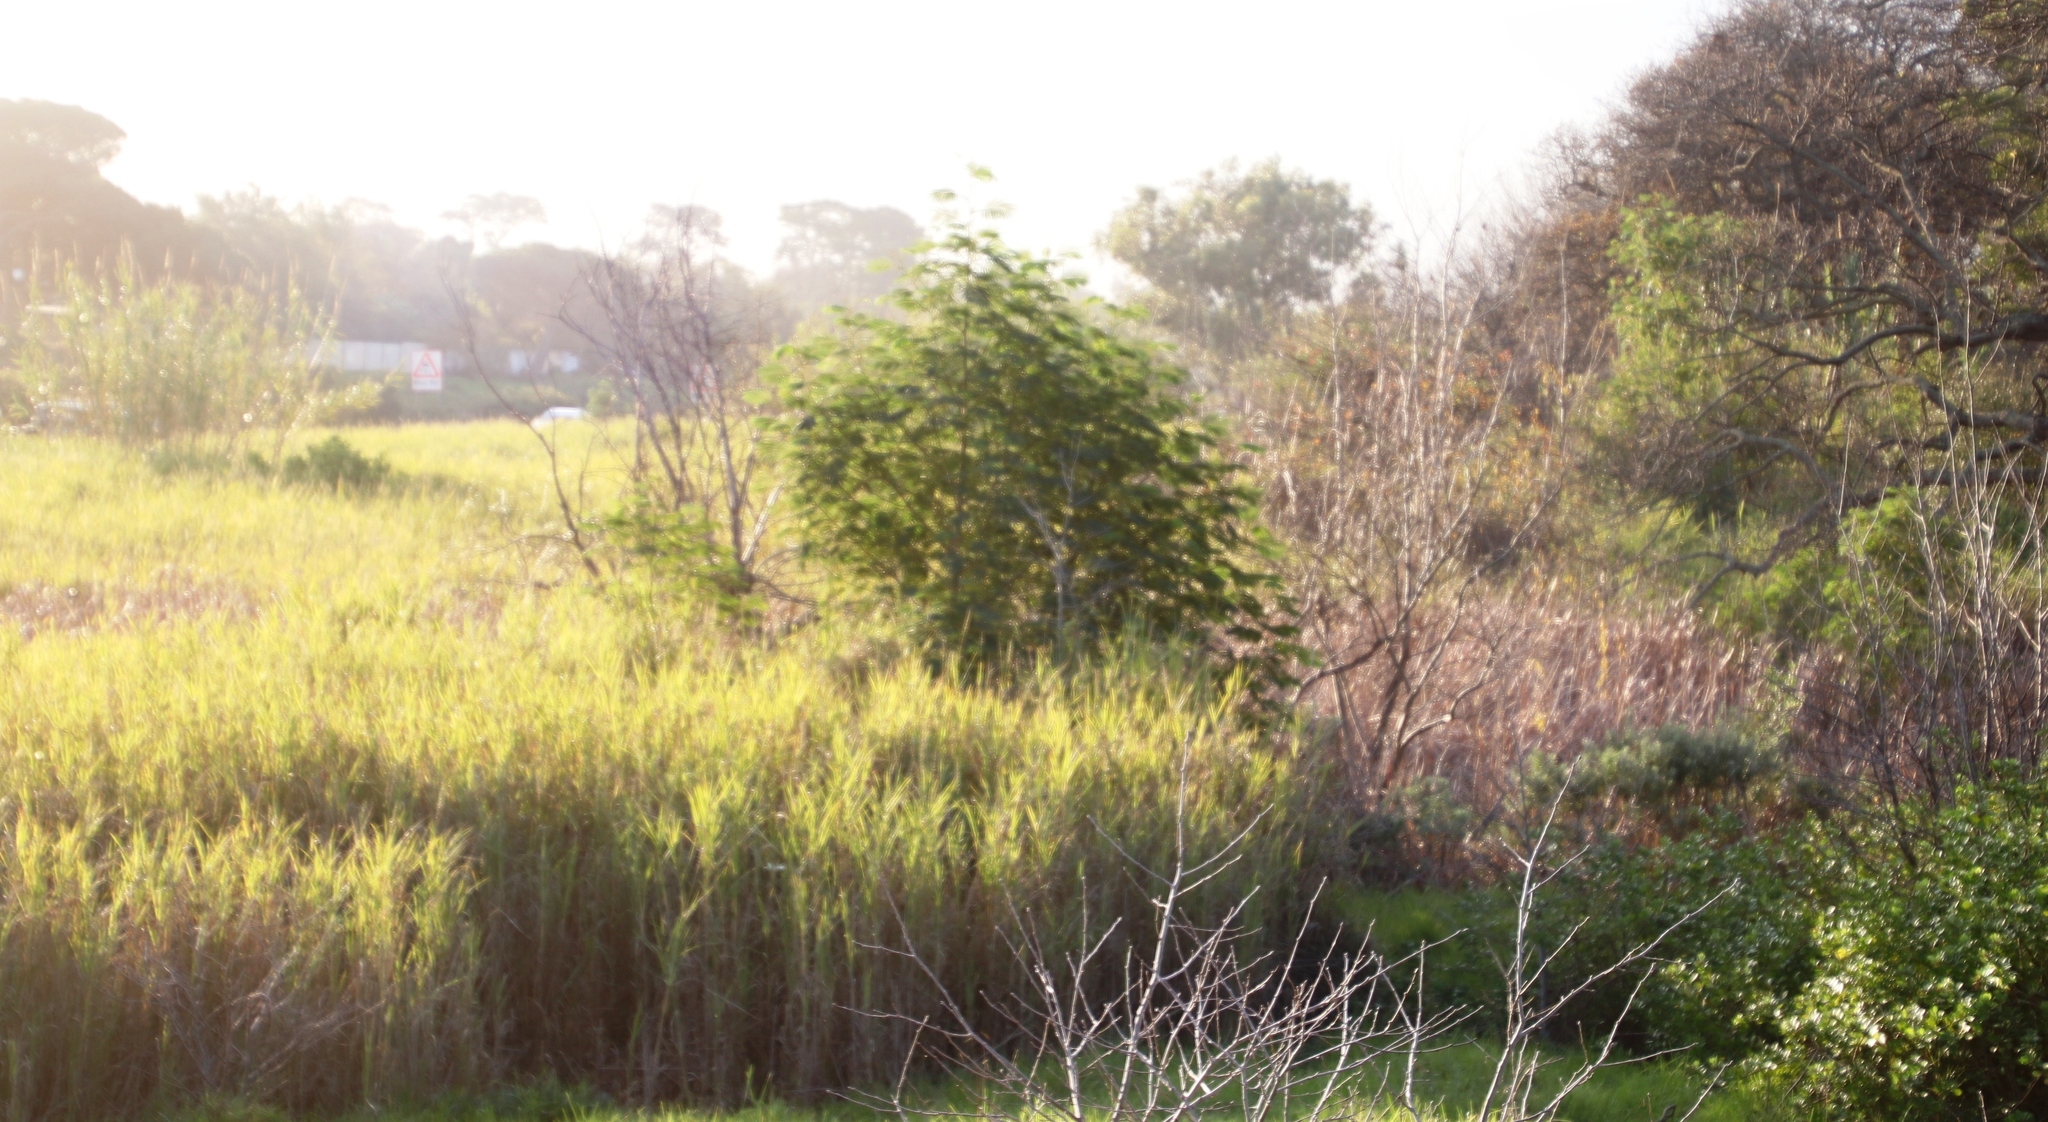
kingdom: Plantae
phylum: Tracheophyta
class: Magnoliopsida
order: Fabales
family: Fabaceae
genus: Paraserianthes
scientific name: Paraserianthes lophantha
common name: Plume albizia
